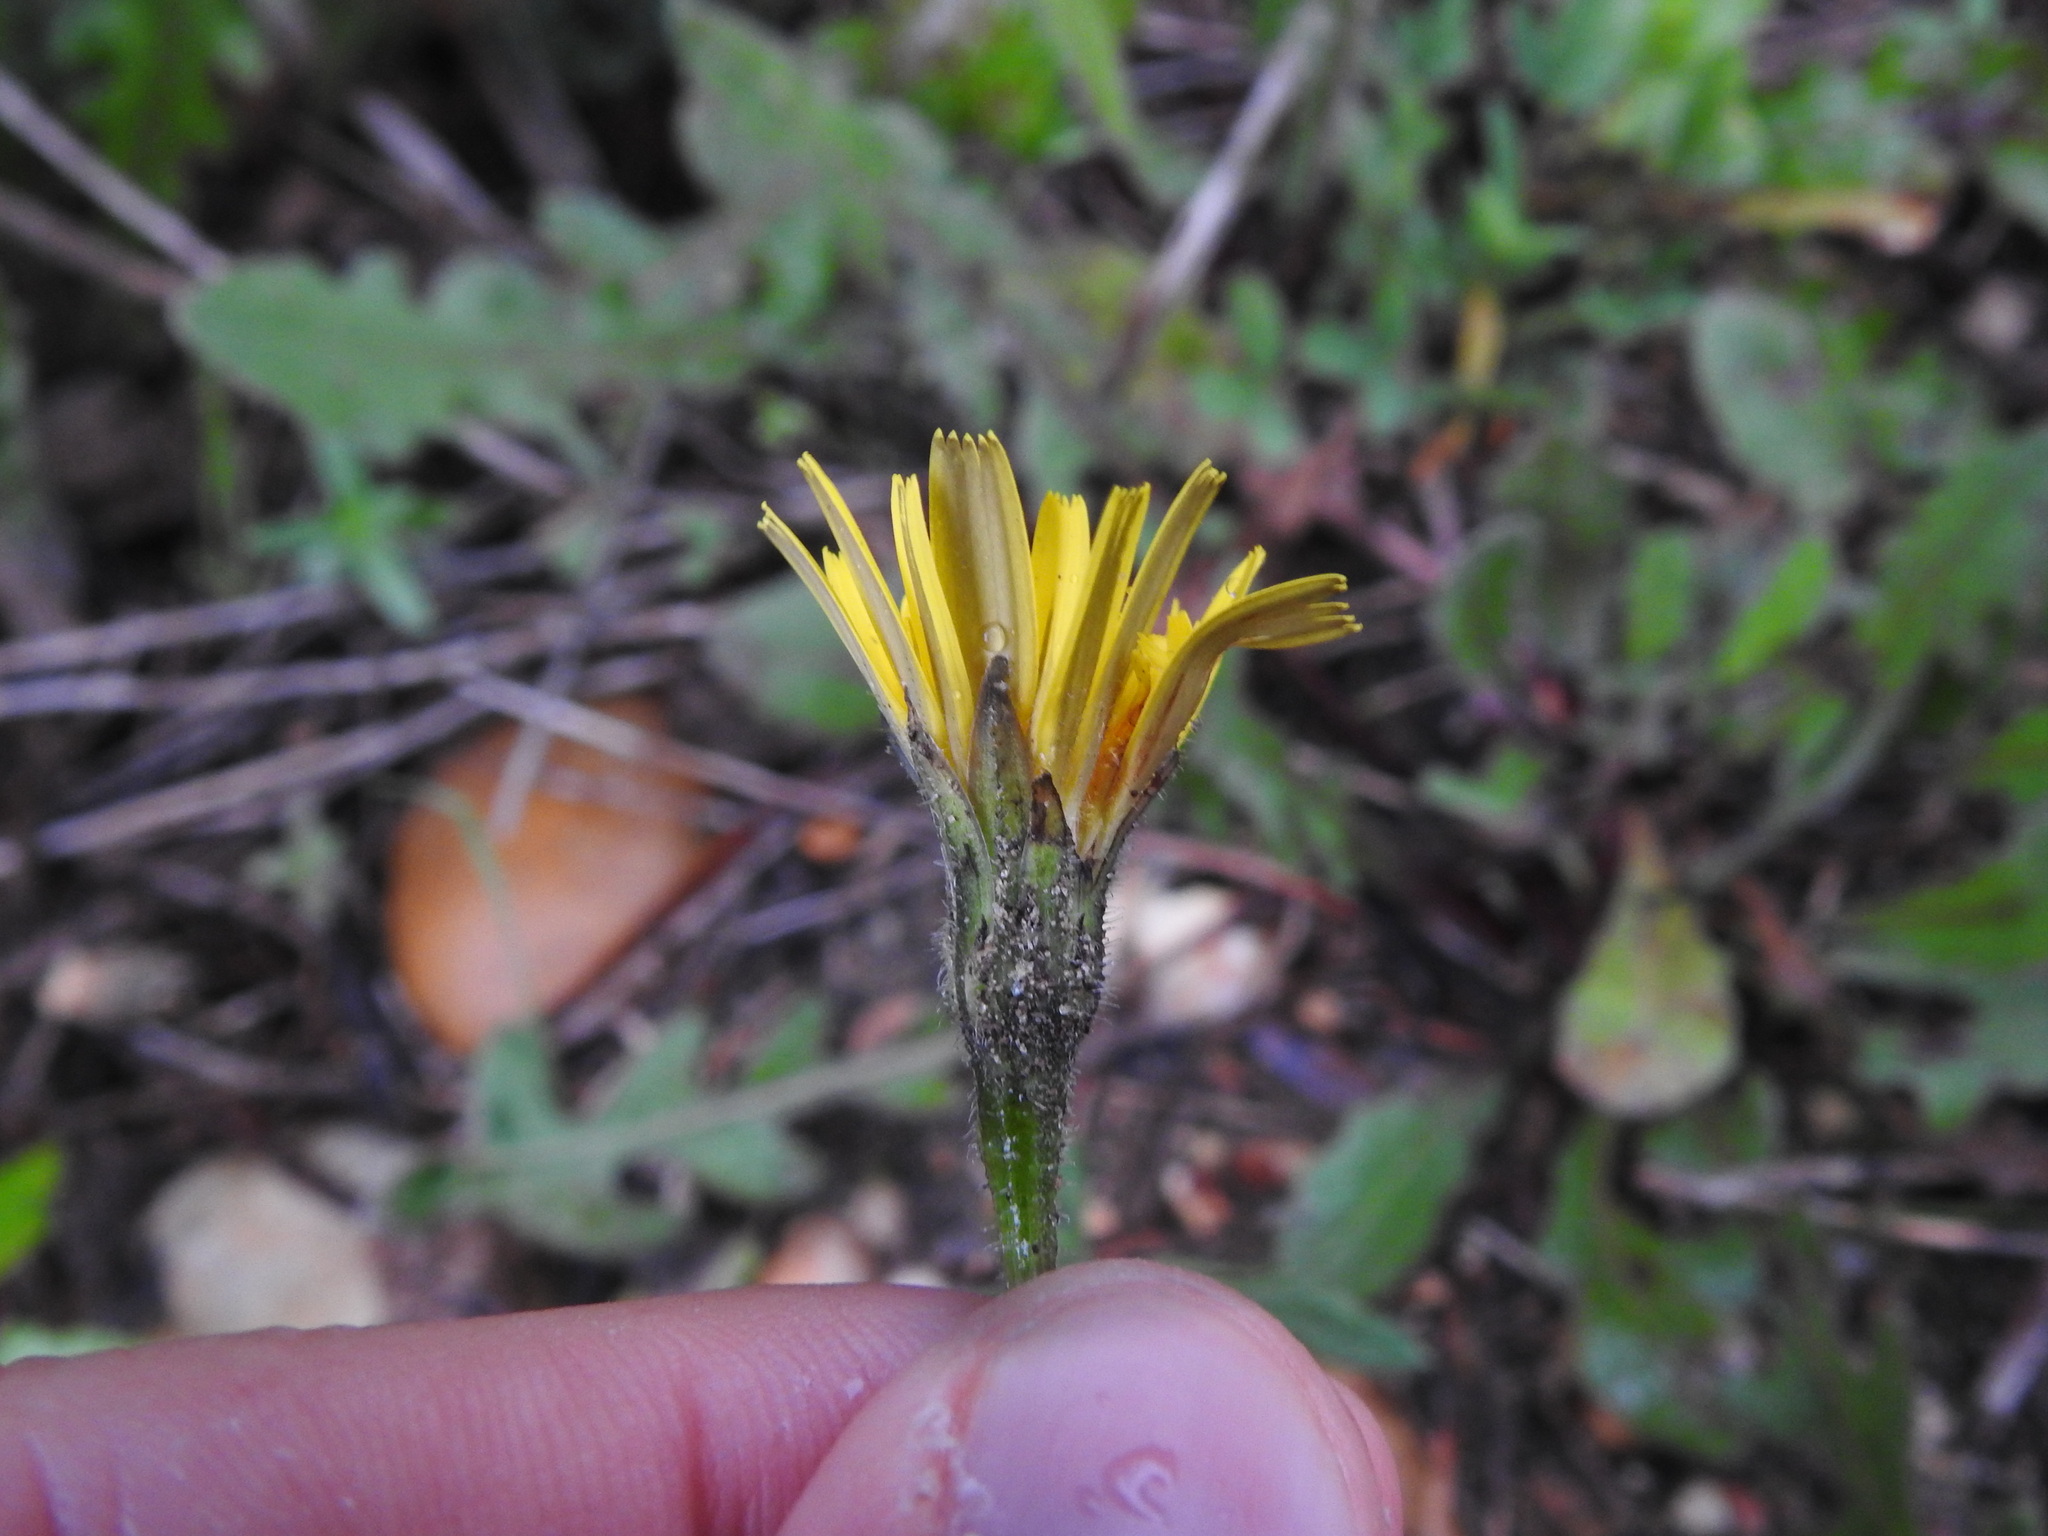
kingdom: Plantae
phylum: Tracheophyta
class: Magnoliopsida
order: Asterales
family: Asteraceae
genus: Leontodon
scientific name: Leontodon tuberosus
